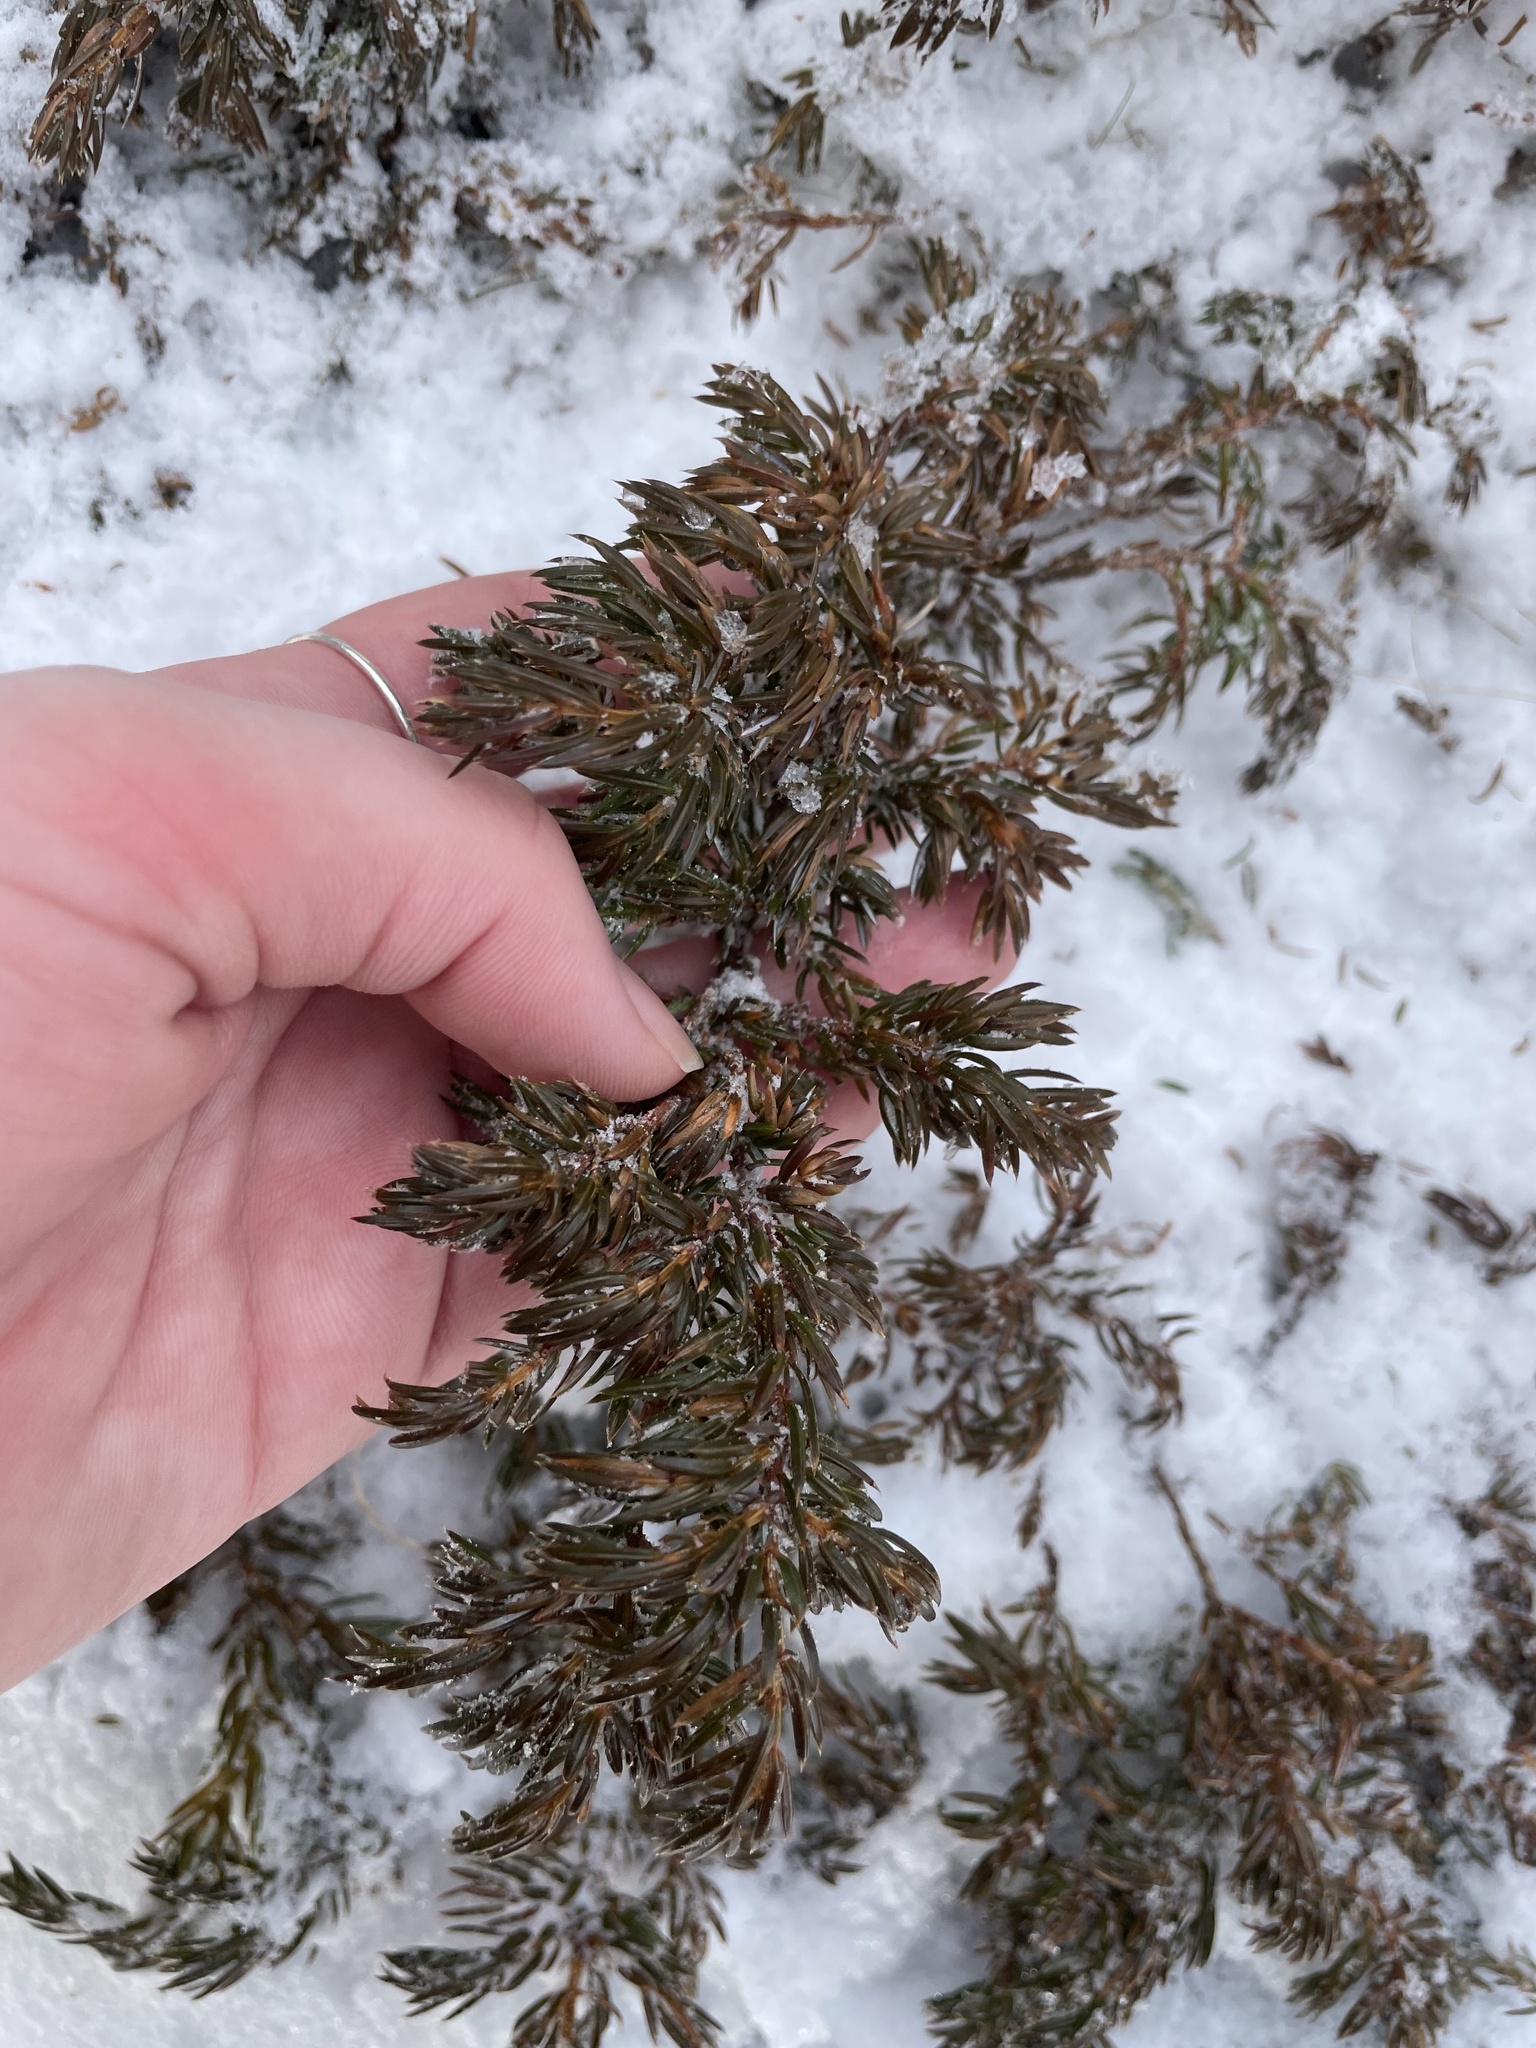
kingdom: Plantae
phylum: Tracheophyta
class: Pinopsida
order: Pinales
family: Cupressaceae
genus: Juniperus
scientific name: Juniperus communis
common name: Common juniper
